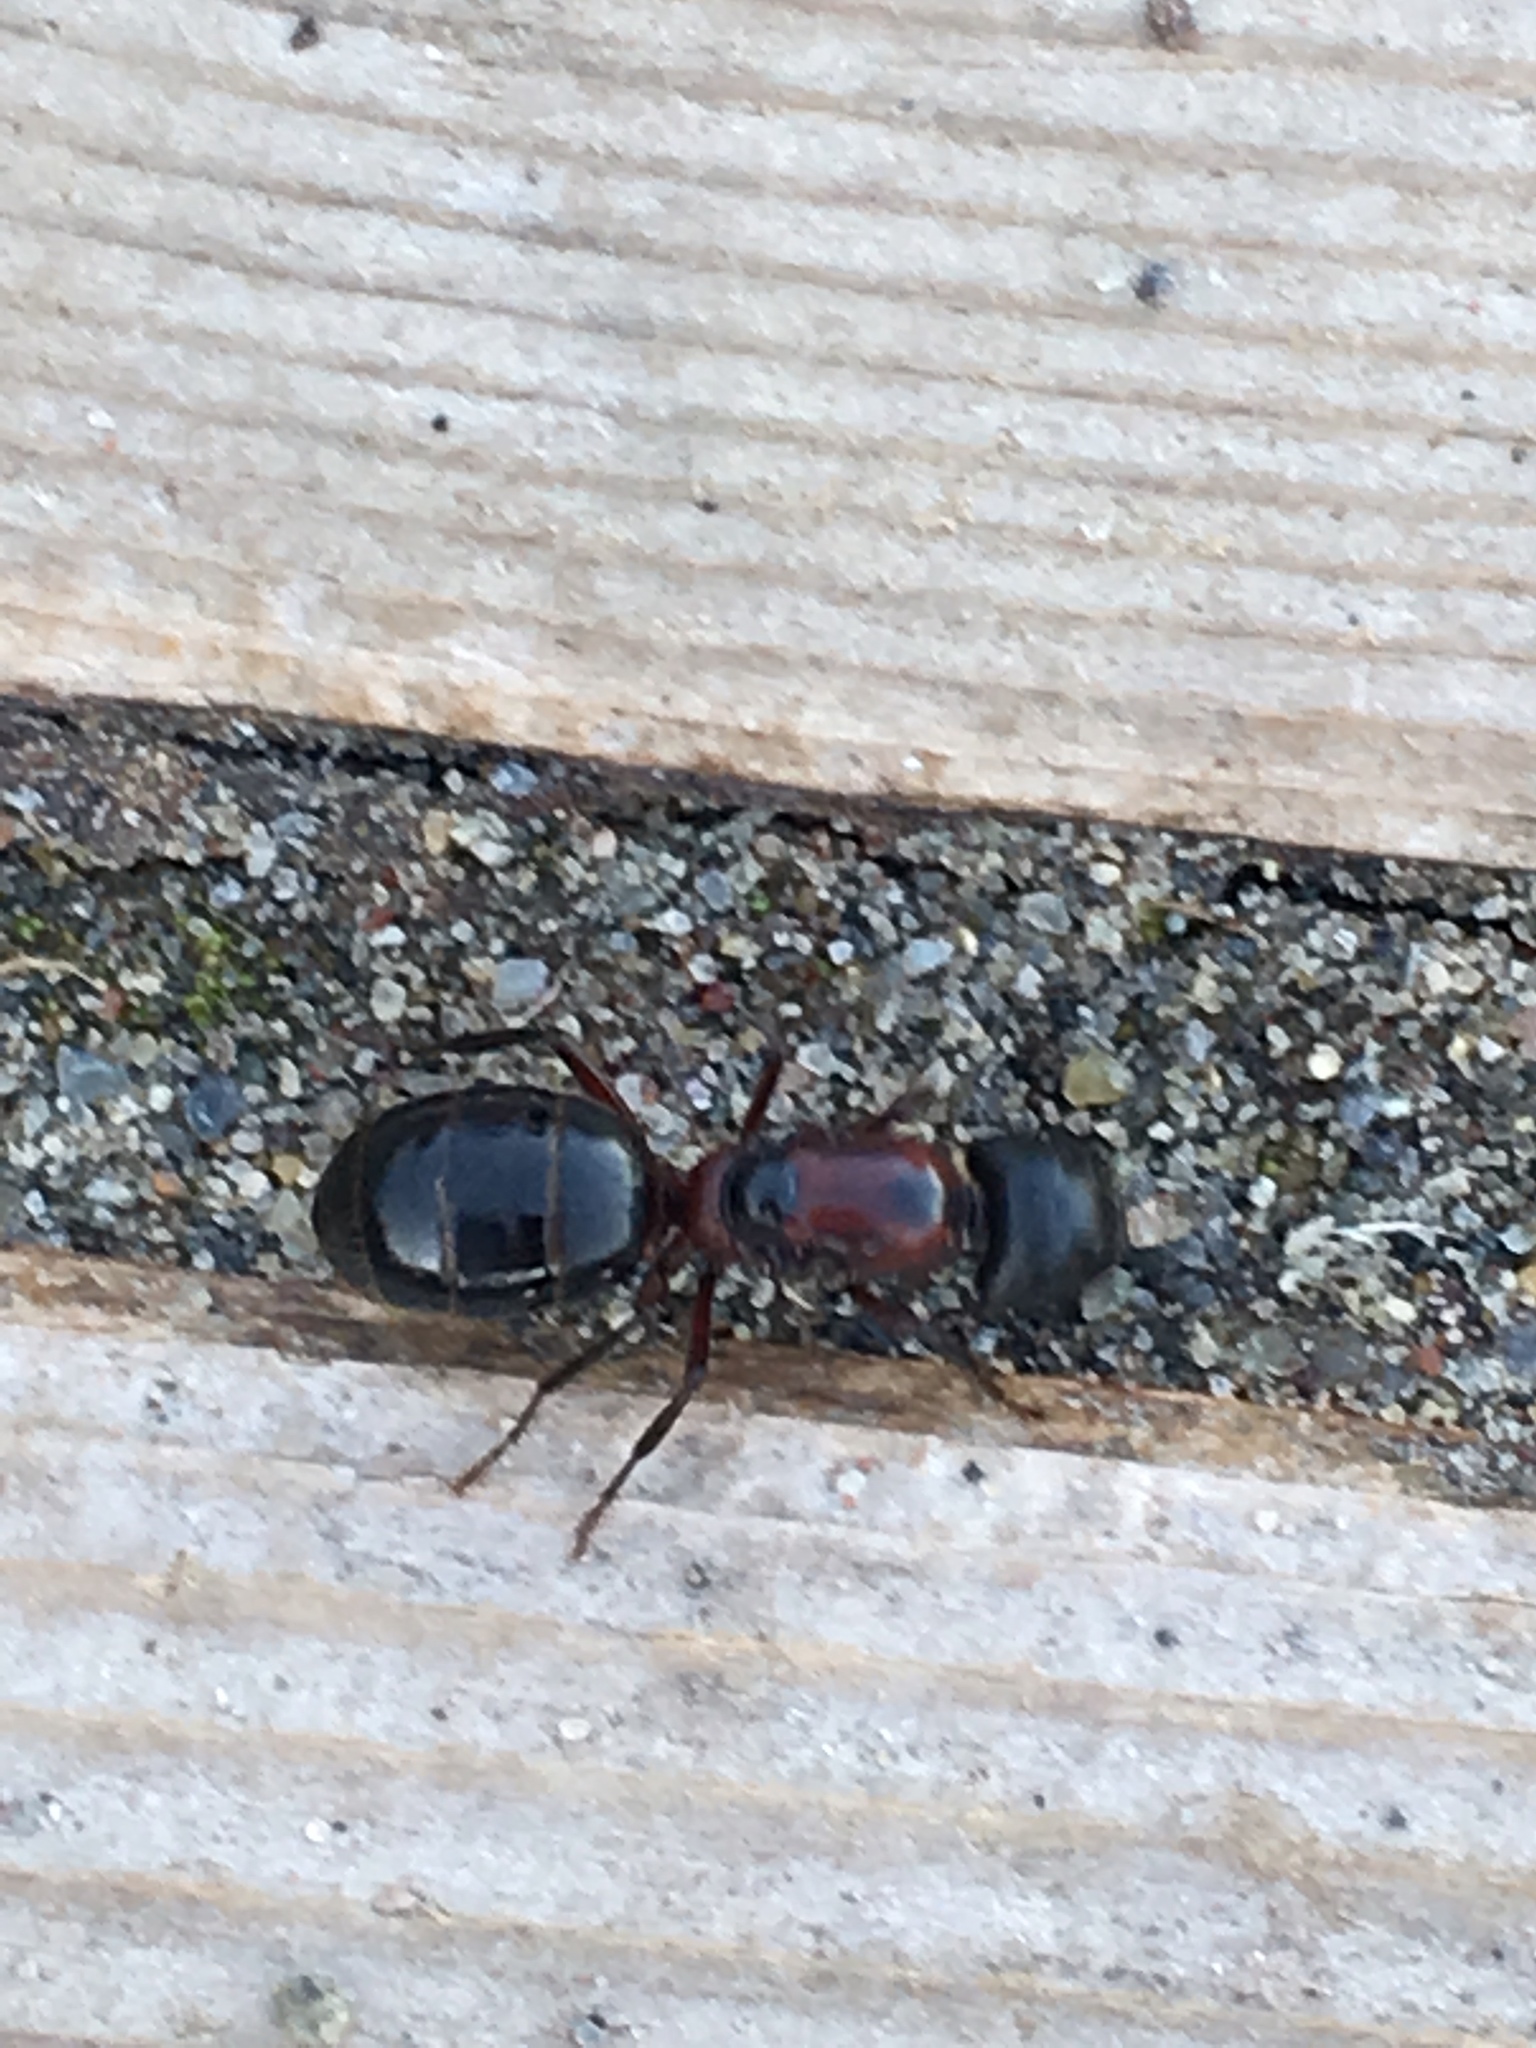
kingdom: Animalia
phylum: Arthropoda
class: Insecta
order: Hymenoptera
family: Formicidae
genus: Camponotus
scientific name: Camponotus novaeboracensis
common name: New york carpenter ant
